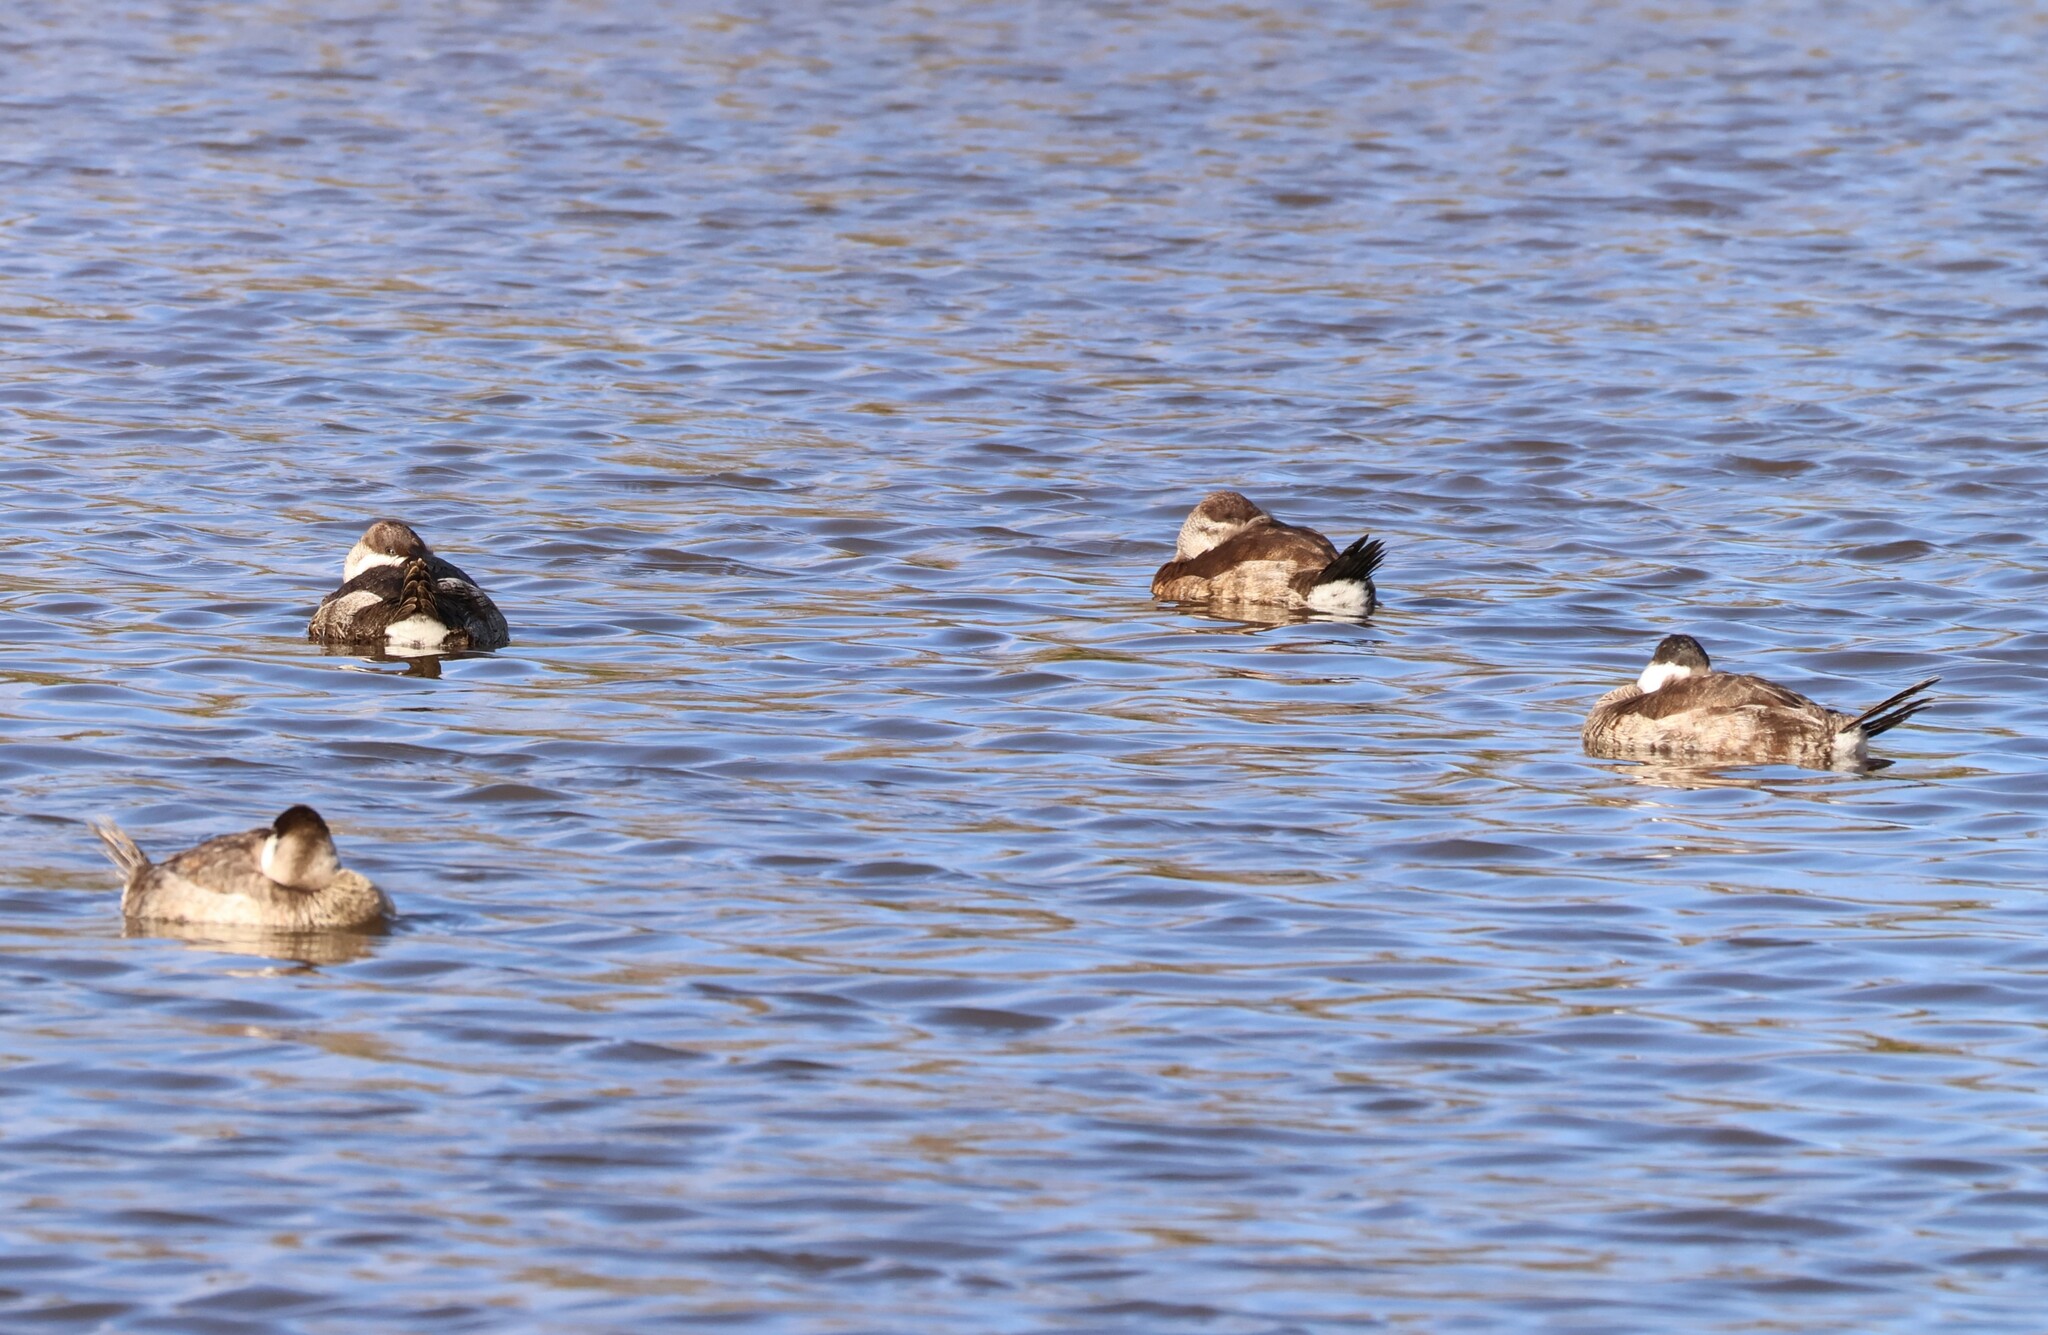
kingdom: Animalia
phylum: Chordata
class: Aves
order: Anseriformes
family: Anatidae
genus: Oxyura
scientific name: Oxyura jamaicensis
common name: Ruddy duck
